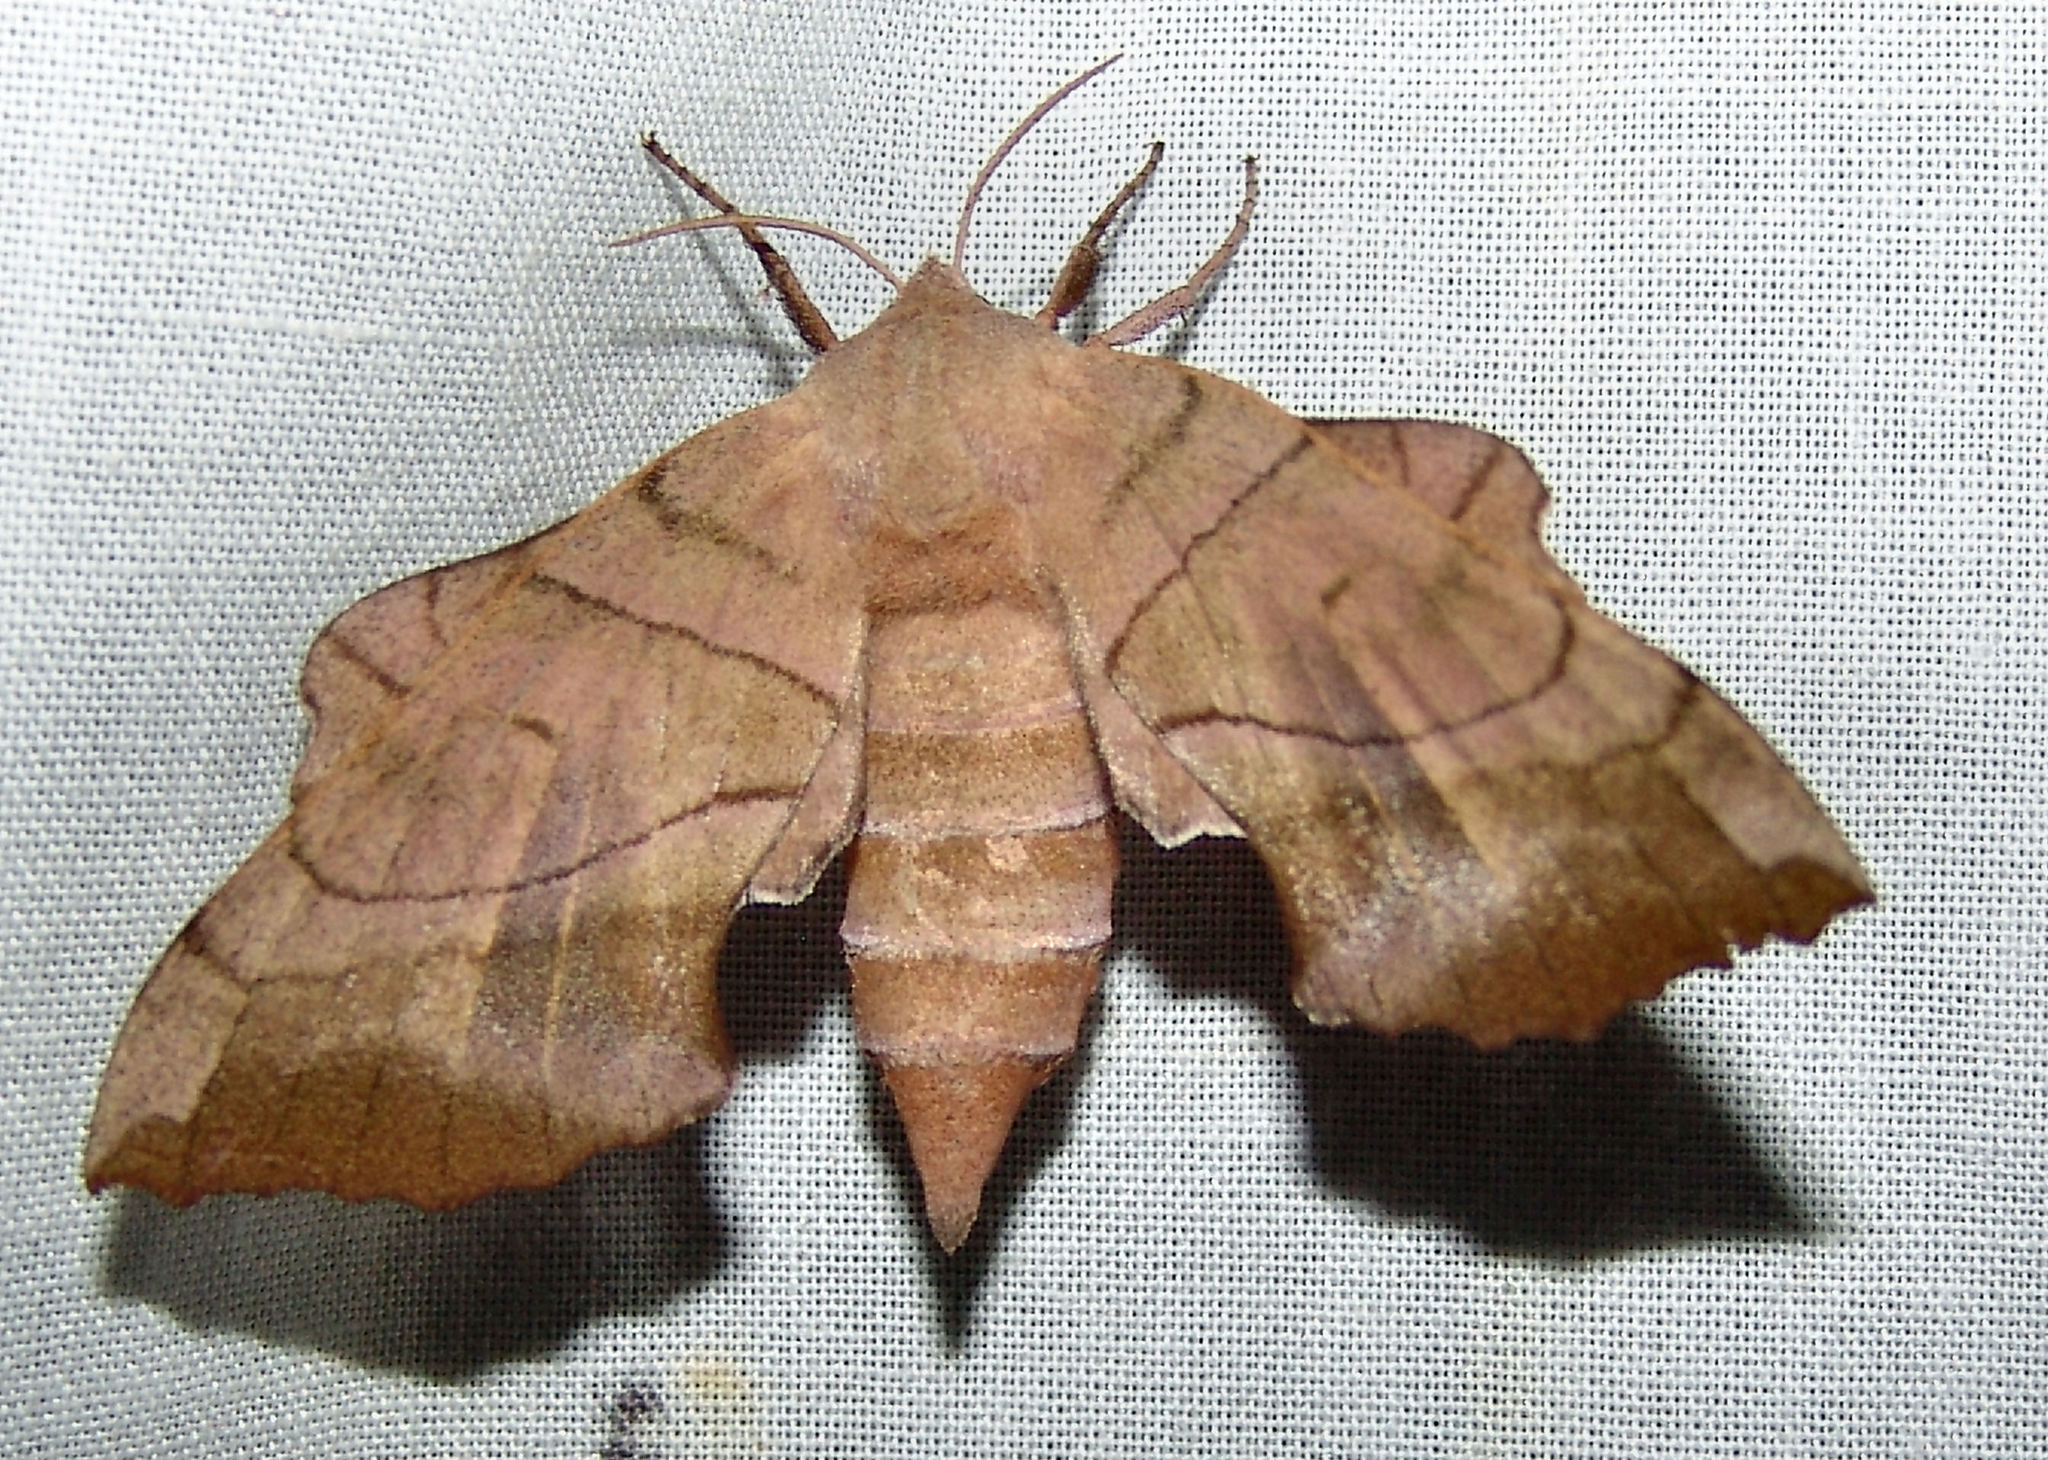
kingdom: Animalia
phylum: Arthropoda
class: Insecta
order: Lepidoptera
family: Sphingidae
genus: Amorpha
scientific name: Amorpha juglandis
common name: Walnut sphinx
